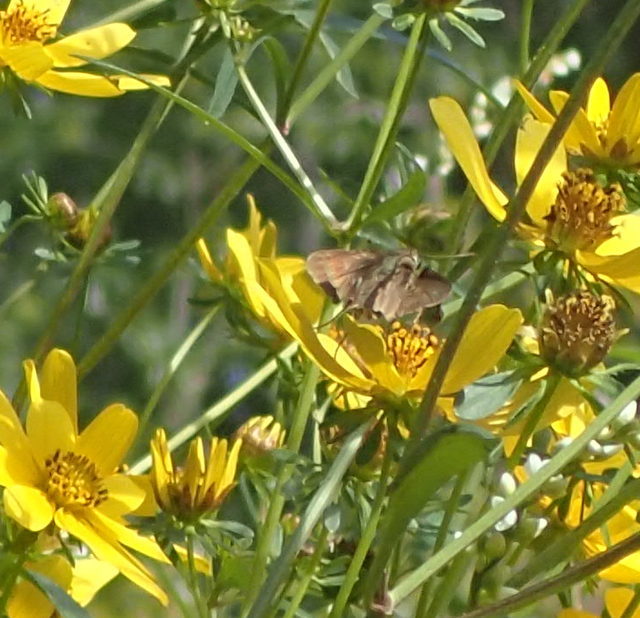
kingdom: Animalia
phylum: Arthropoda
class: Insecta
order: Lepidoptera
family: Hesperiidae
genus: Panoquina
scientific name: Panoquina ocola
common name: Ocola skipper
